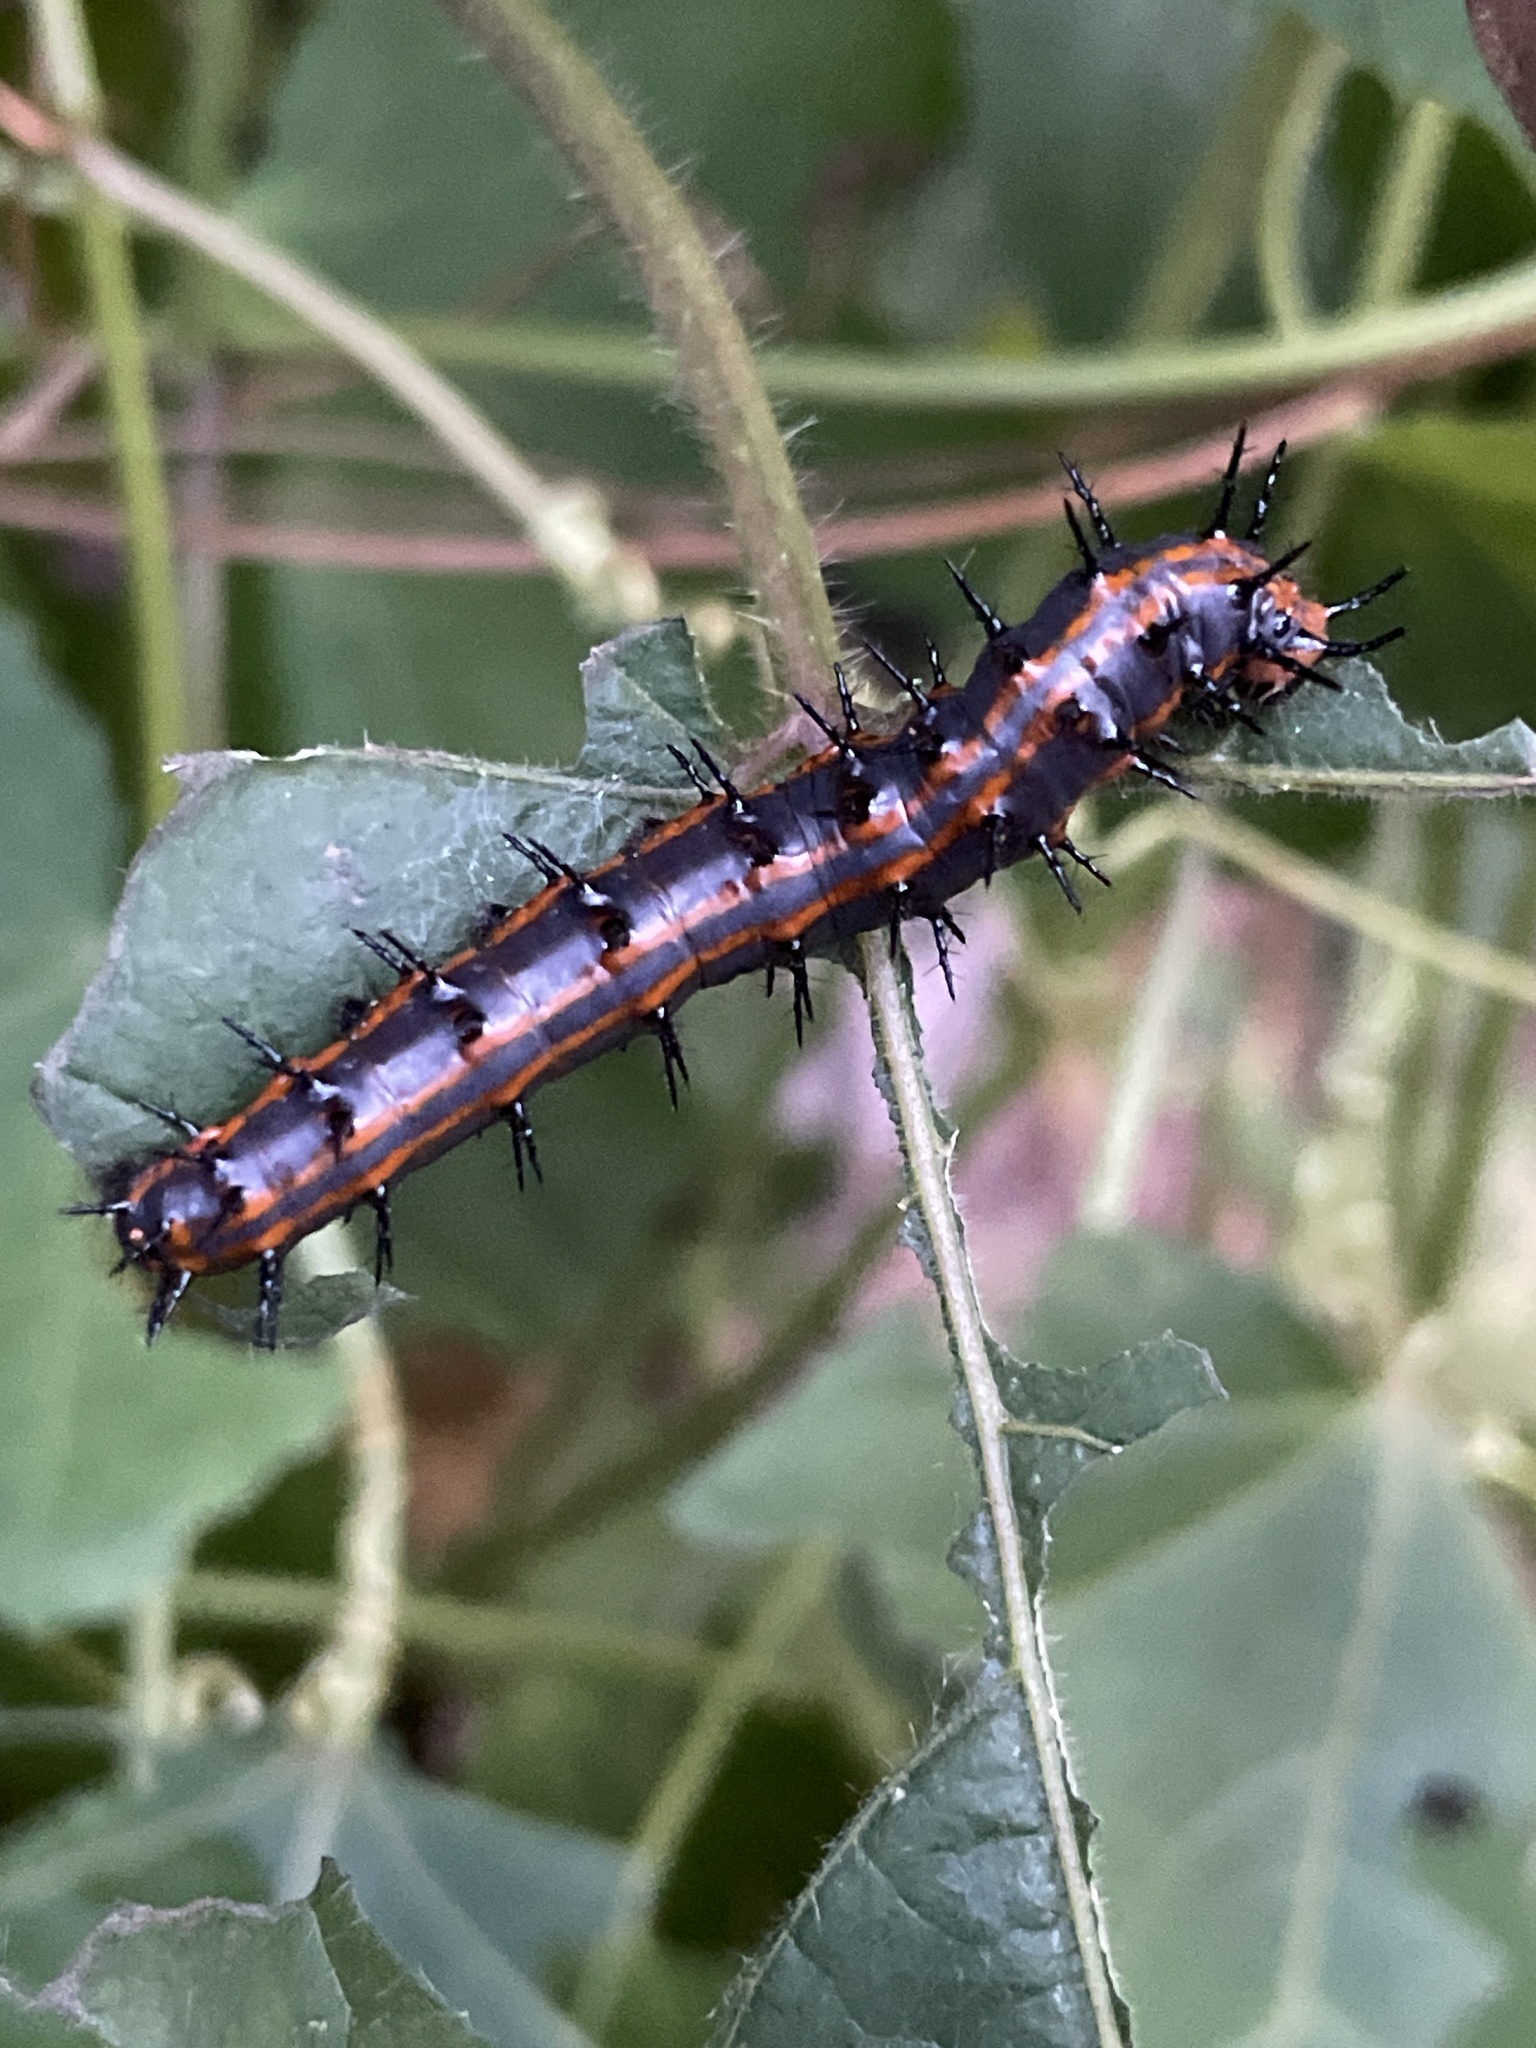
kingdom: Animalia
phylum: Arthropoda
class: Insecta
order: Lepidoptera
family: Nymphalidae
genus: Dione
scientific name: Dione vanillae
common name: Gulf fritillary
